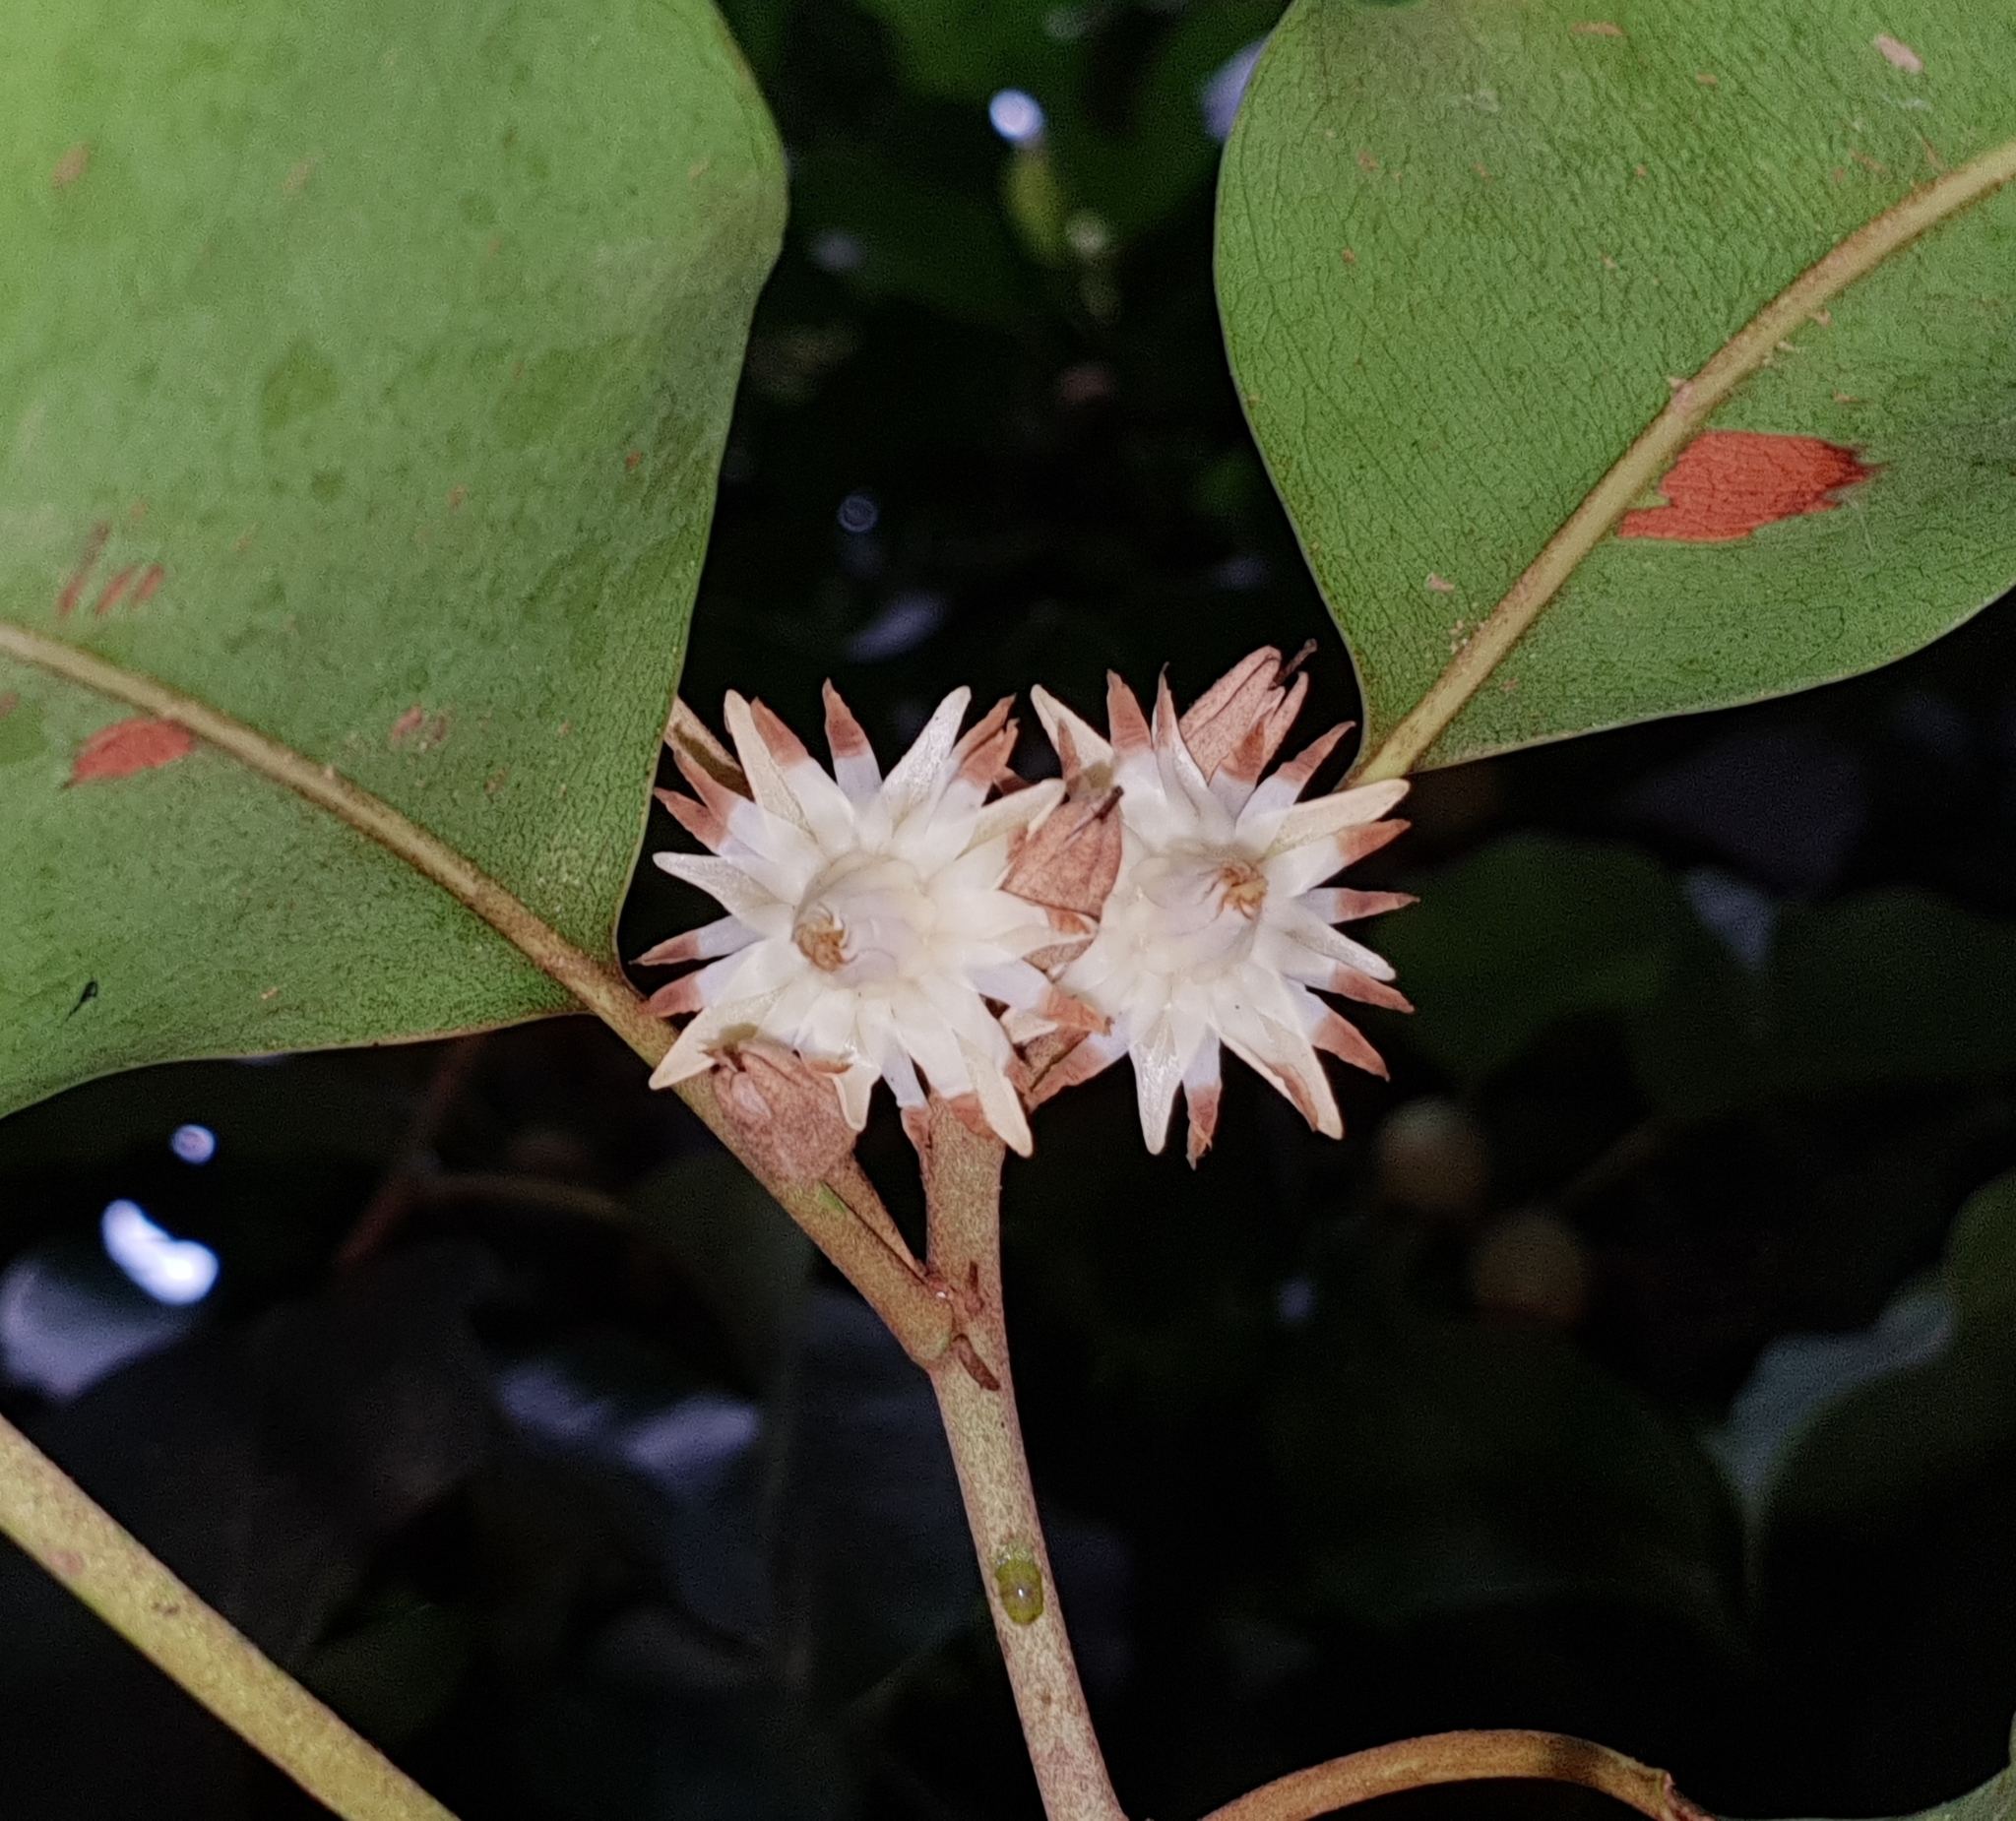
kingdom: Plantae
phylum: Tracheophyta
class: Magnoliopsida
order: Ericales
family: Sapotaceae
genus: Mimusops
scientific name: Mimusops elengi
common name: Spanish cherry
